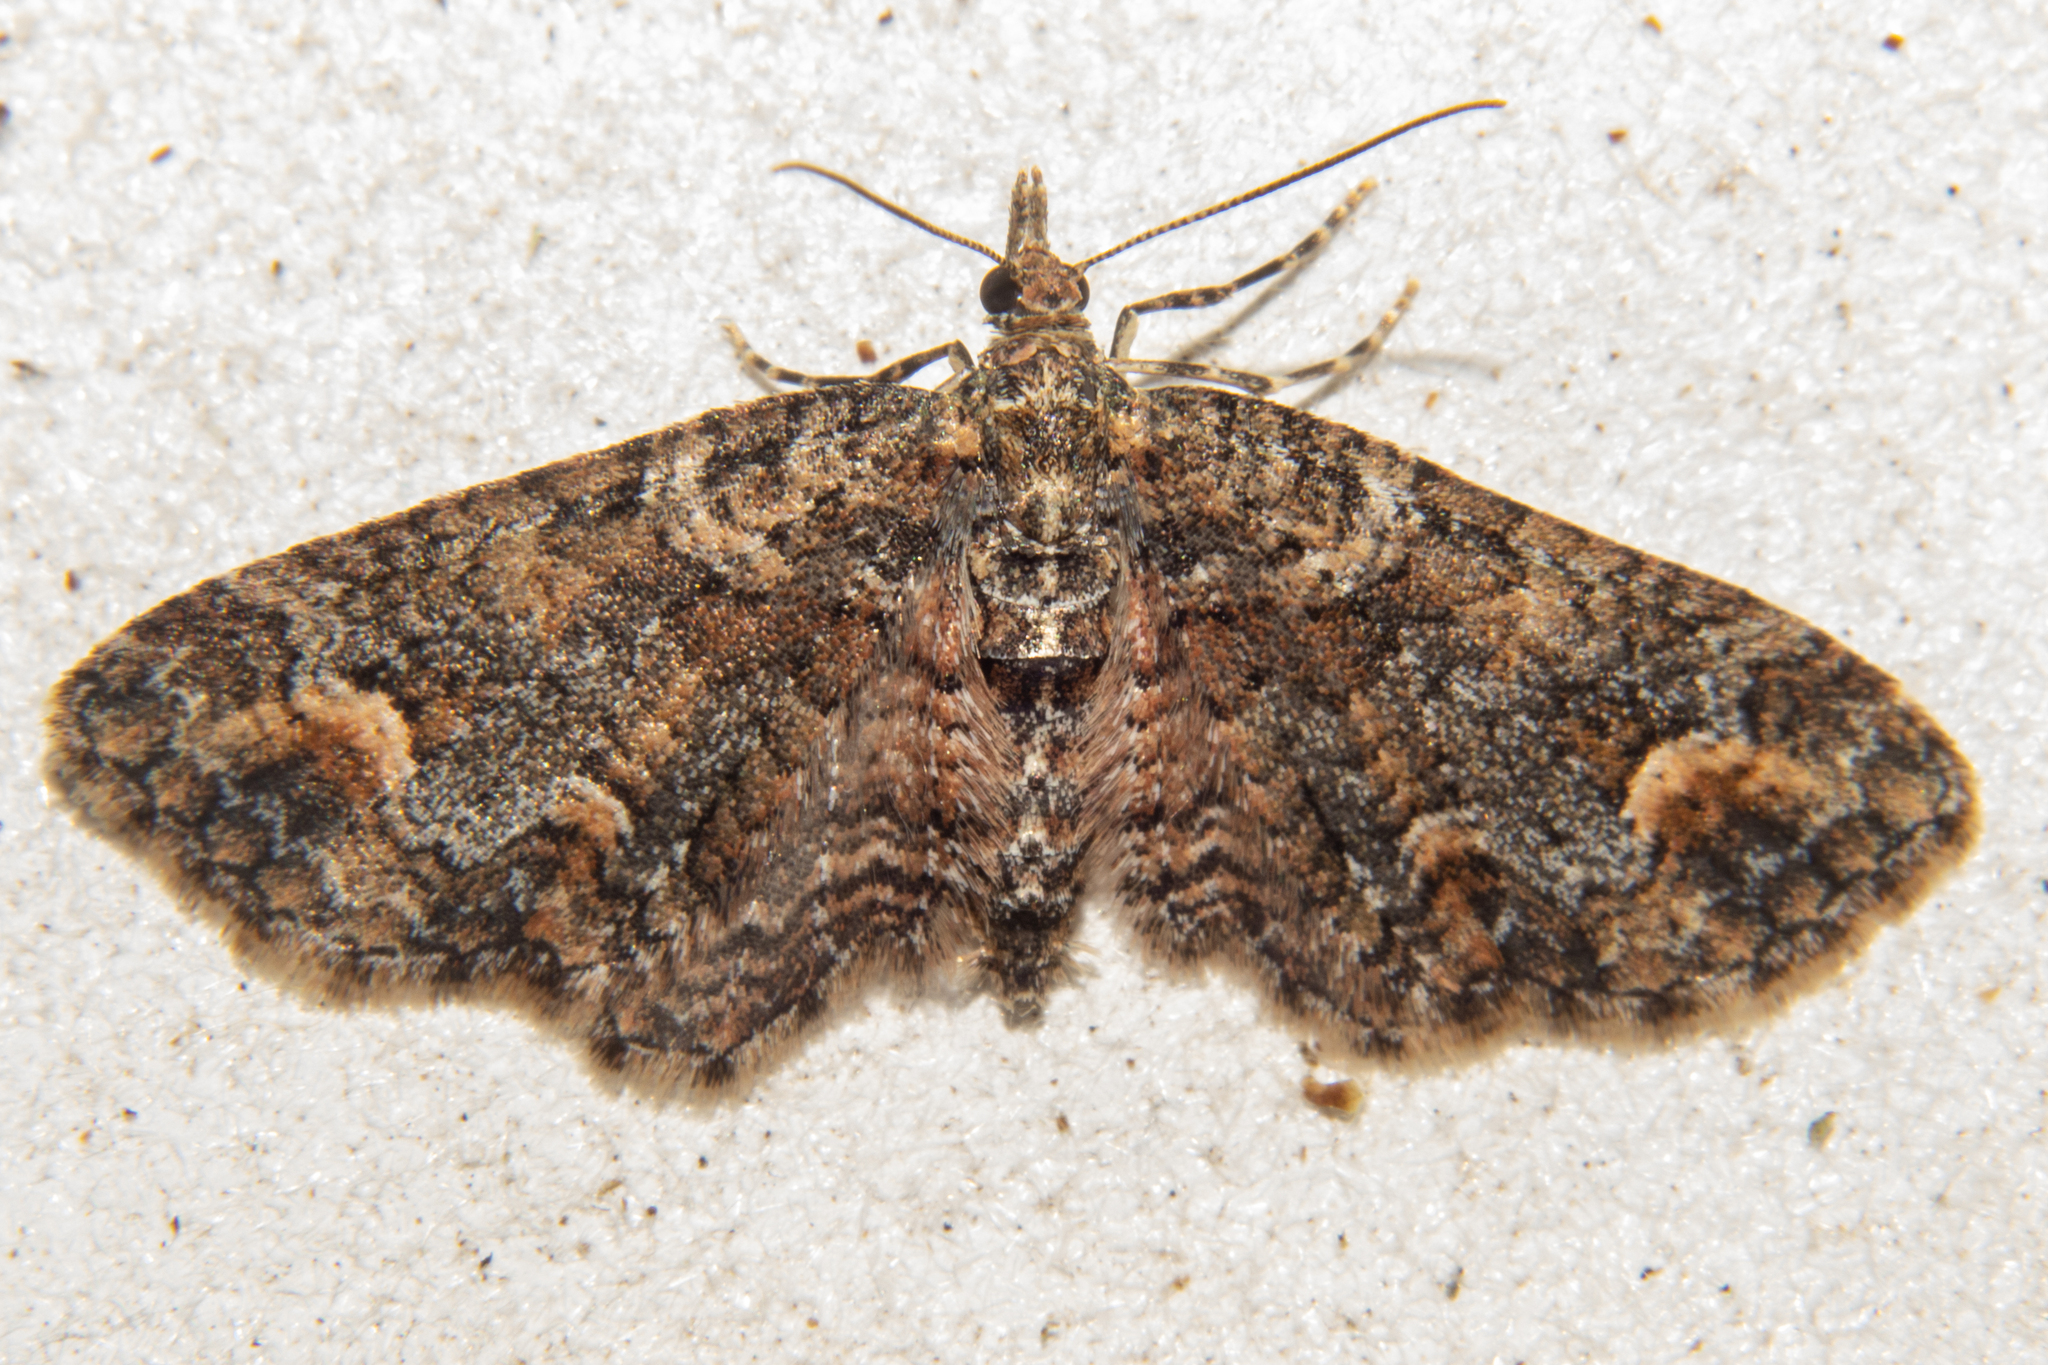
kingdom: Animalia
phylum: Arthropoda
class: Insecta
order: Lepidoptera
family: Geometridae
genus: Idaea
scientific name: Idaea mutanda
